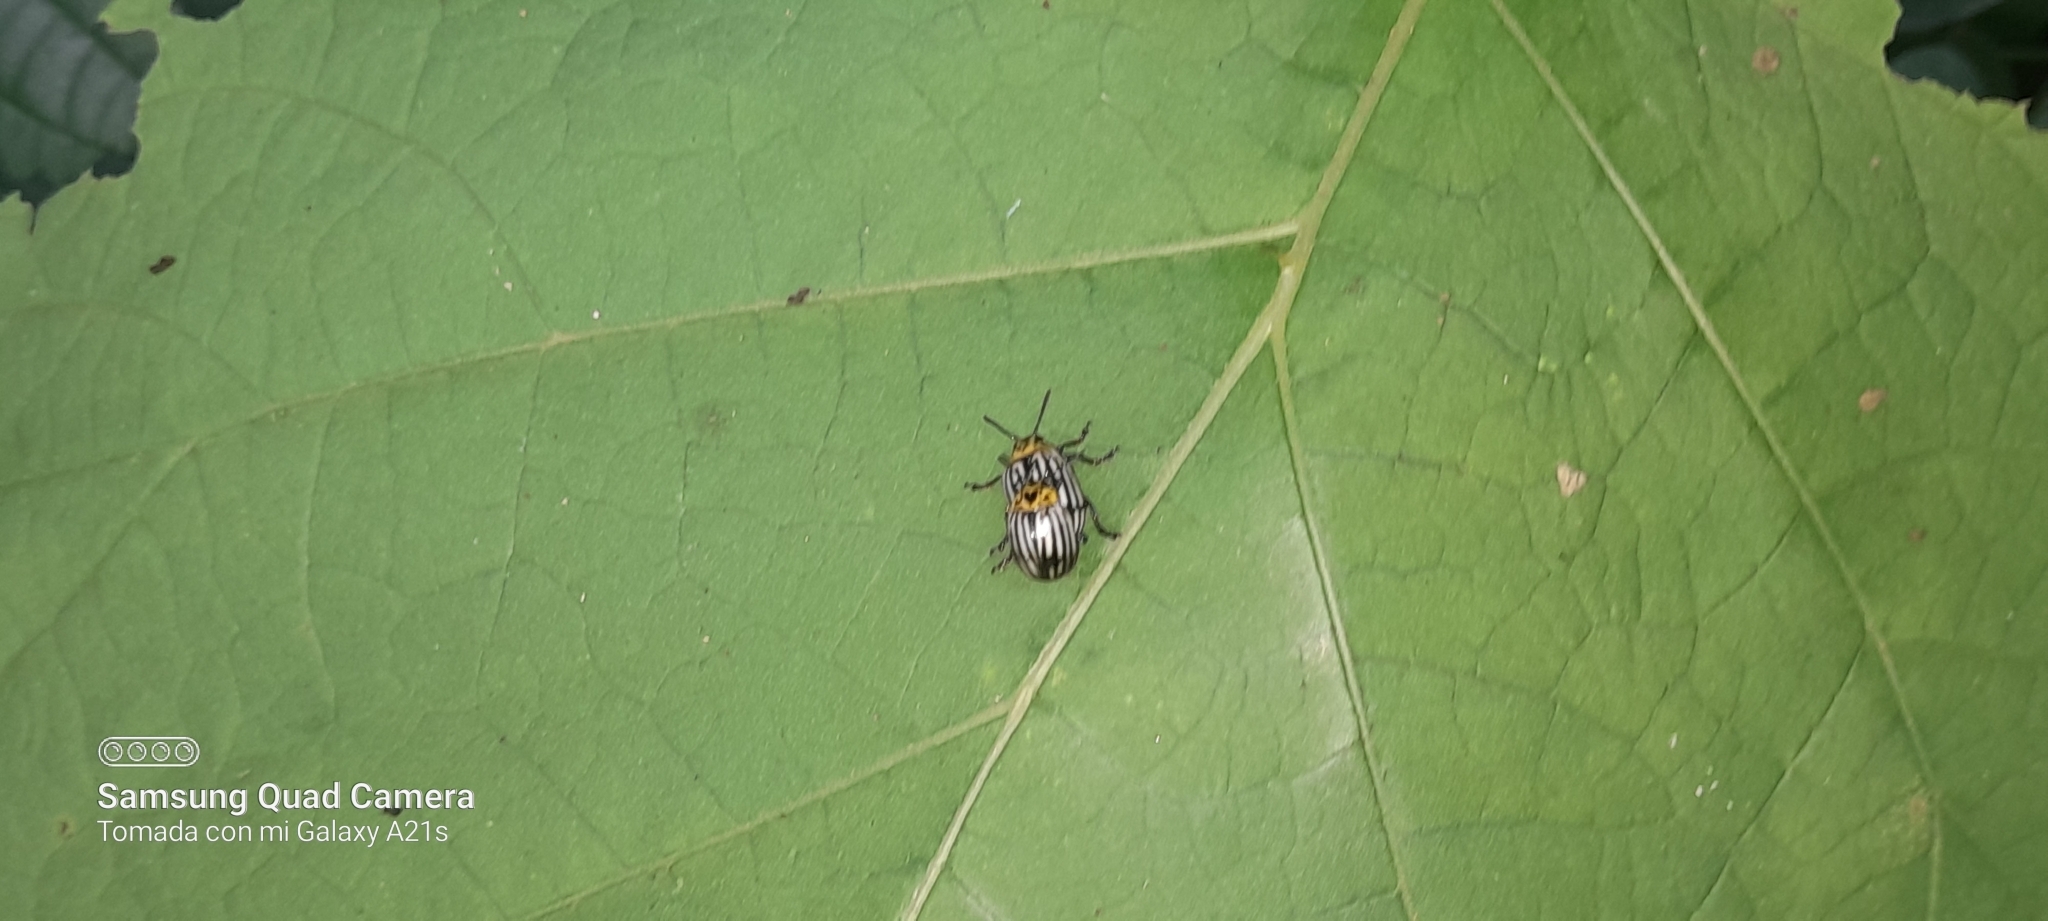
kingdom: Animalia
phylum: Arthropoda
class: Insecta
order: Coleoptera
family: Chrysomelidae
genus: Leptinotarsa
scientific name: Leptinotarsa
